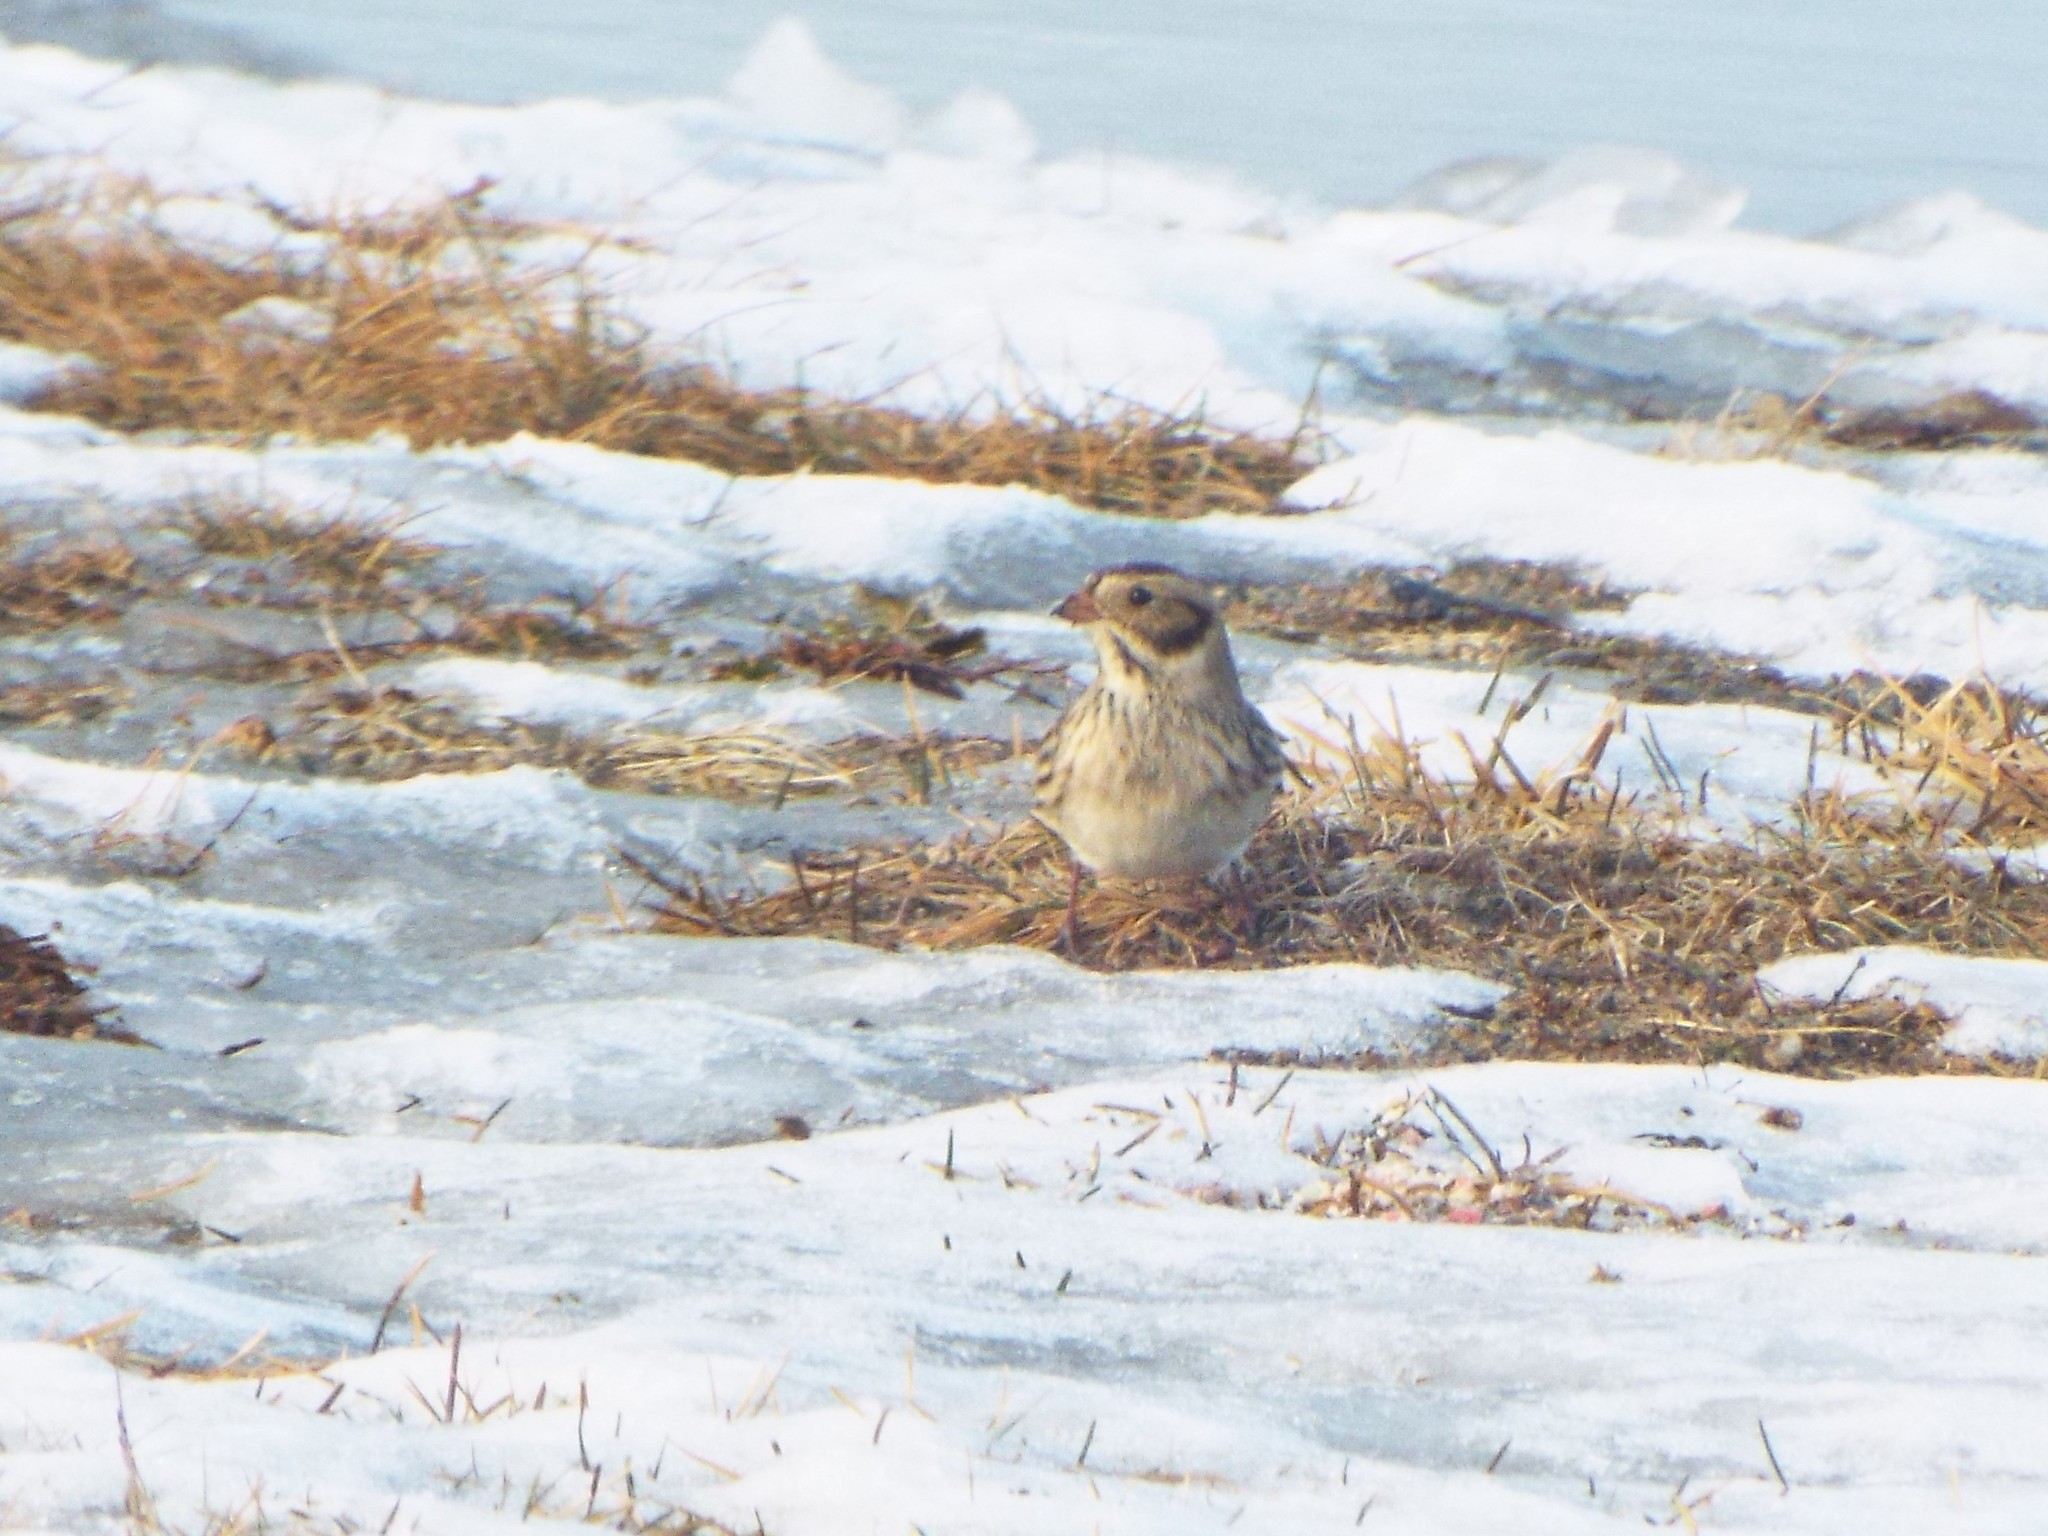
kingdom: Animalia
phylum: Chordata
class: Aves
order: Passeriformes
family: Calcariidae
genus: Calcarius
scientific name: Calcarius lapponicus
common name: Lapland longspur
